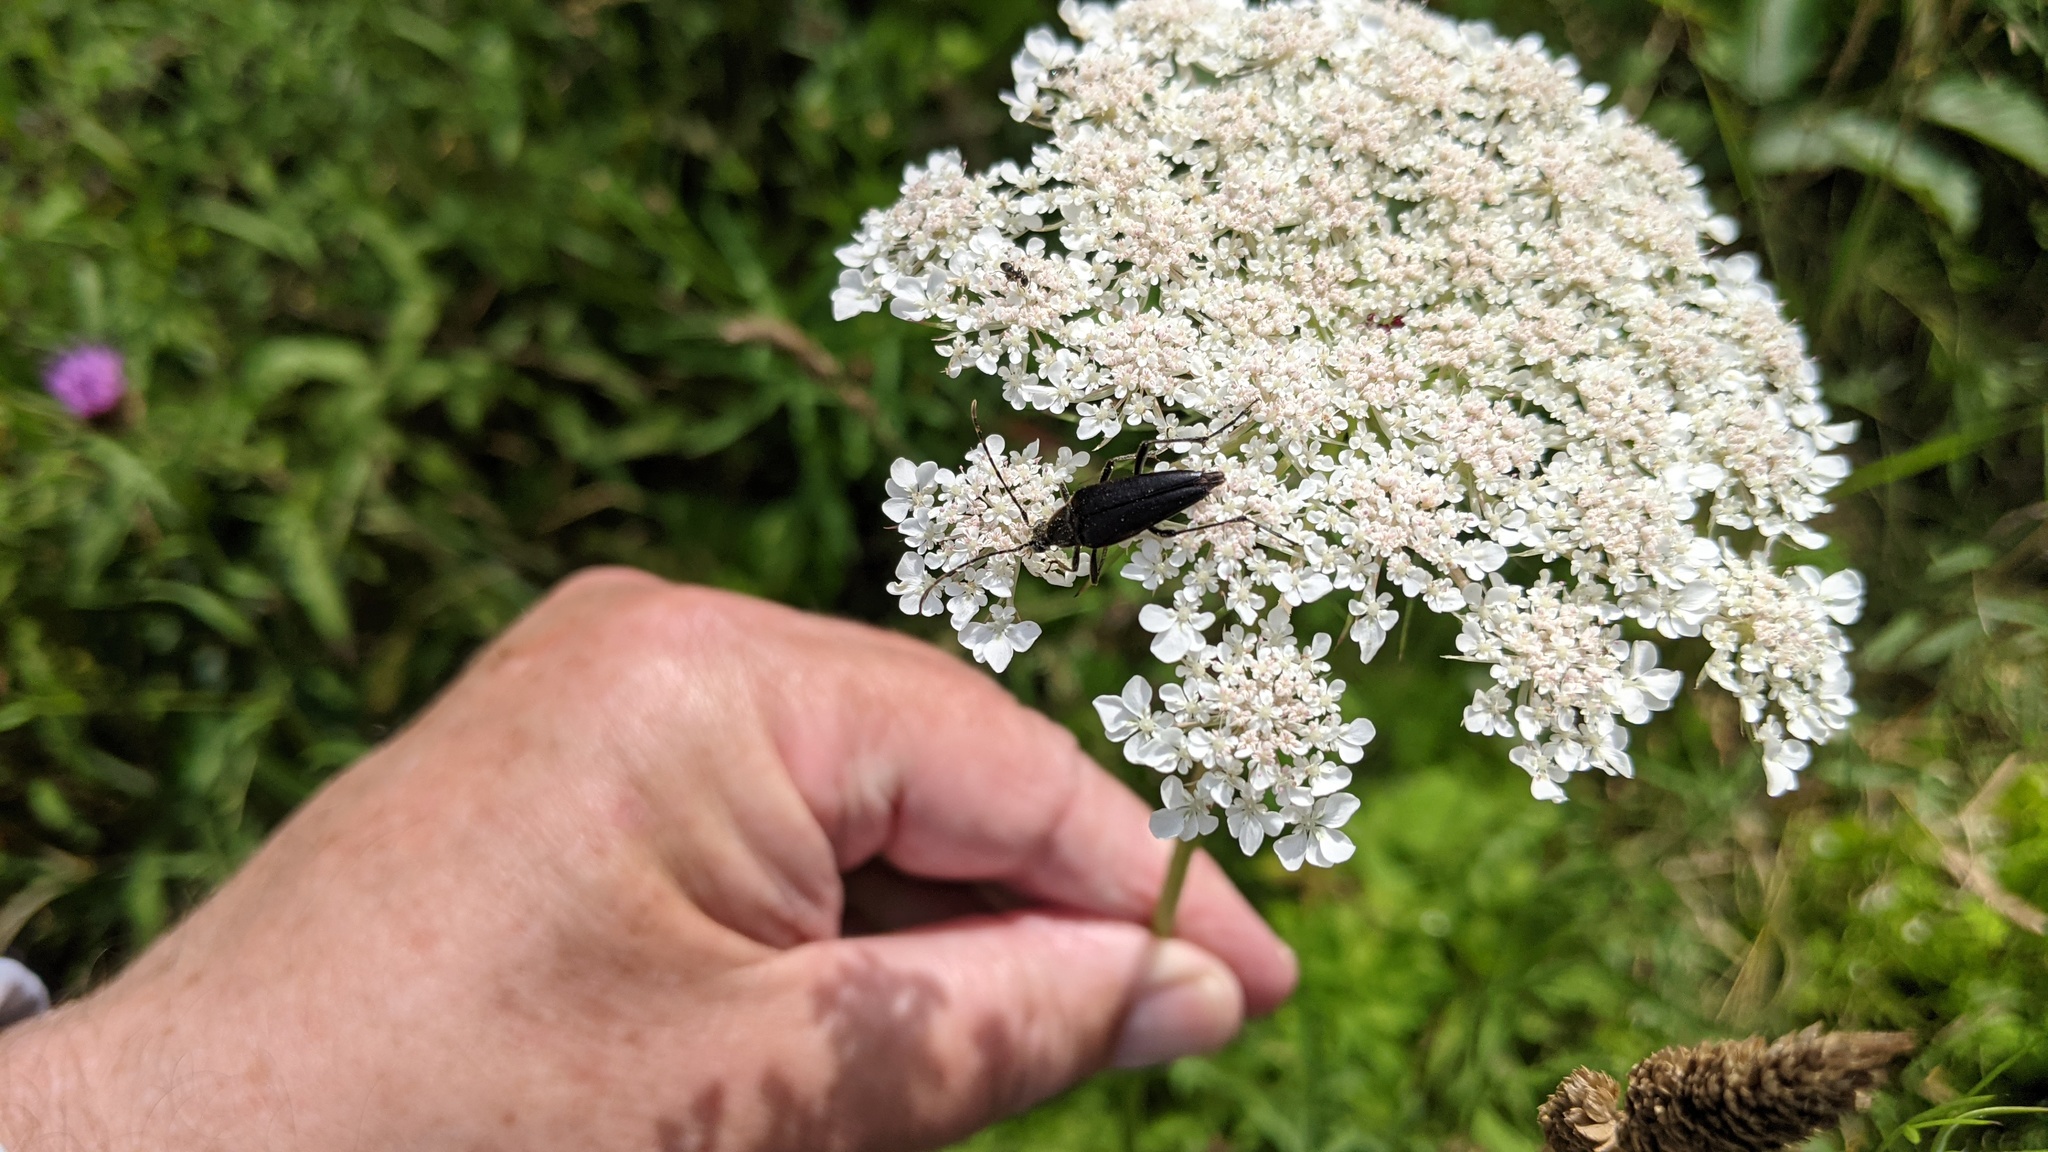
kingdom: Plantae
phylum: Tracheophyta
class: Magnoliopsida
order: Apiales
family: Apiaceae
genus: Daucus
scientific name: Daucus carota
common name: Wild carrot
